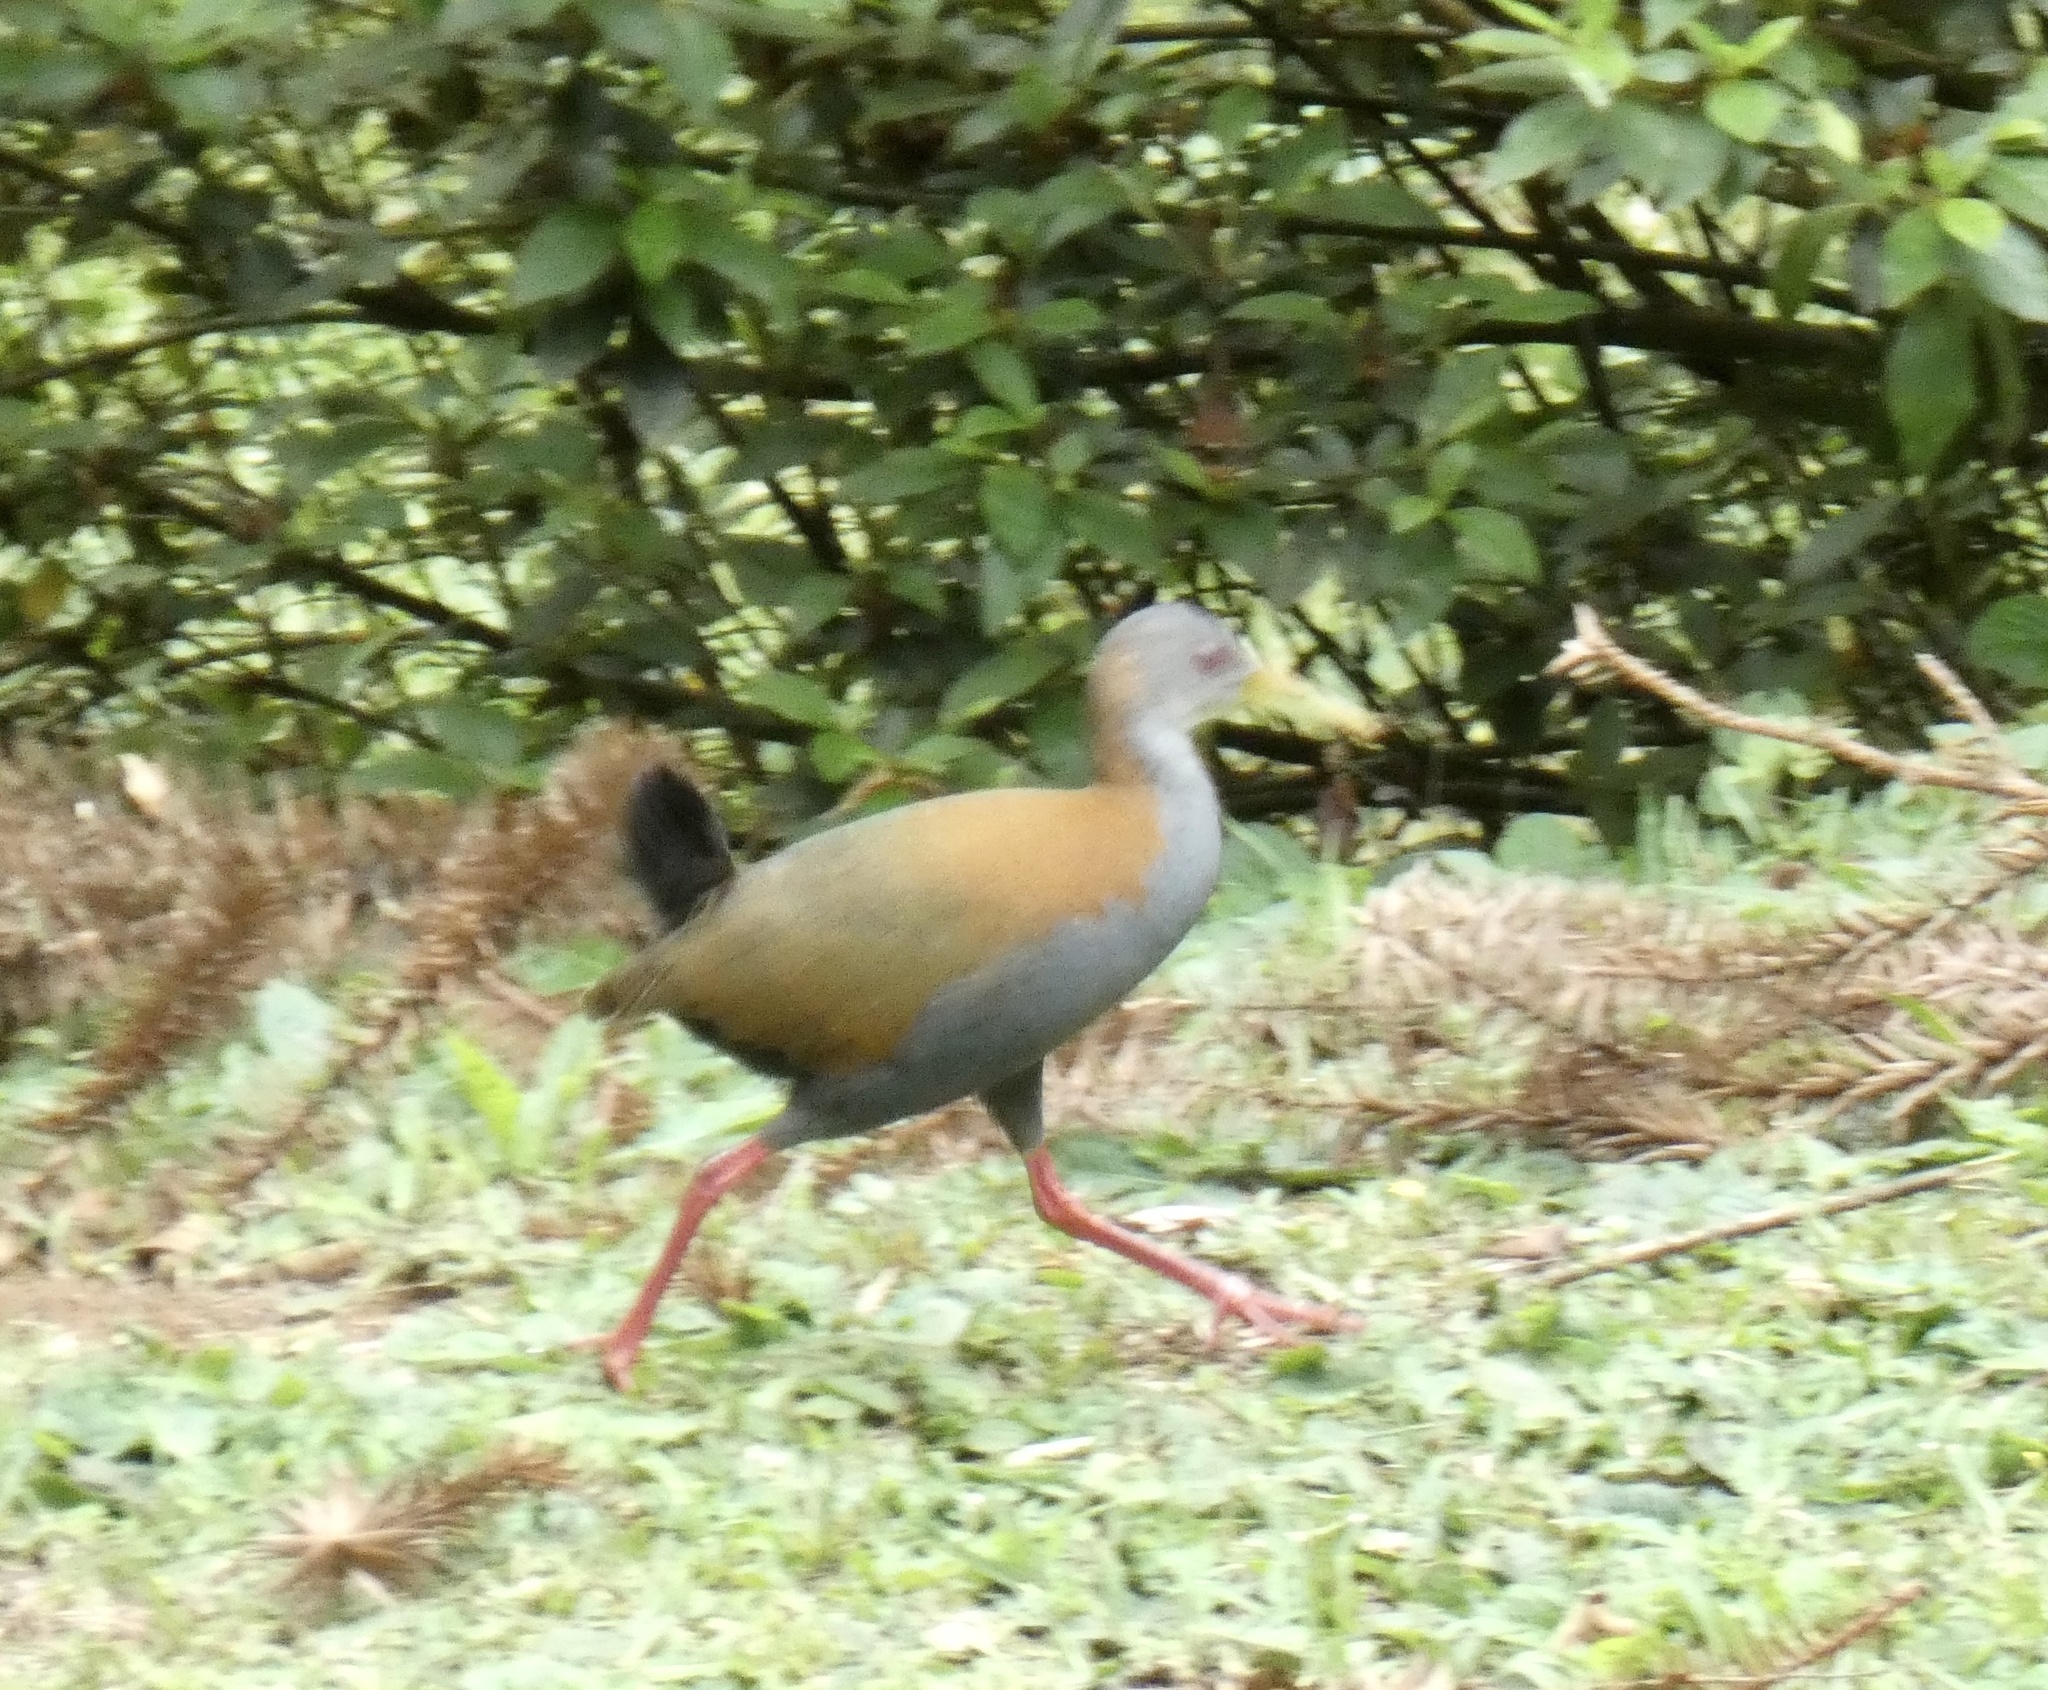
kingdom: Animalia
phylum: Chordata
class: Aves
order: Gruiformes
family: Rallidae
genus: Aramides
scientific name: Aramides saracura
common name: Slaty-breasted wood rail
